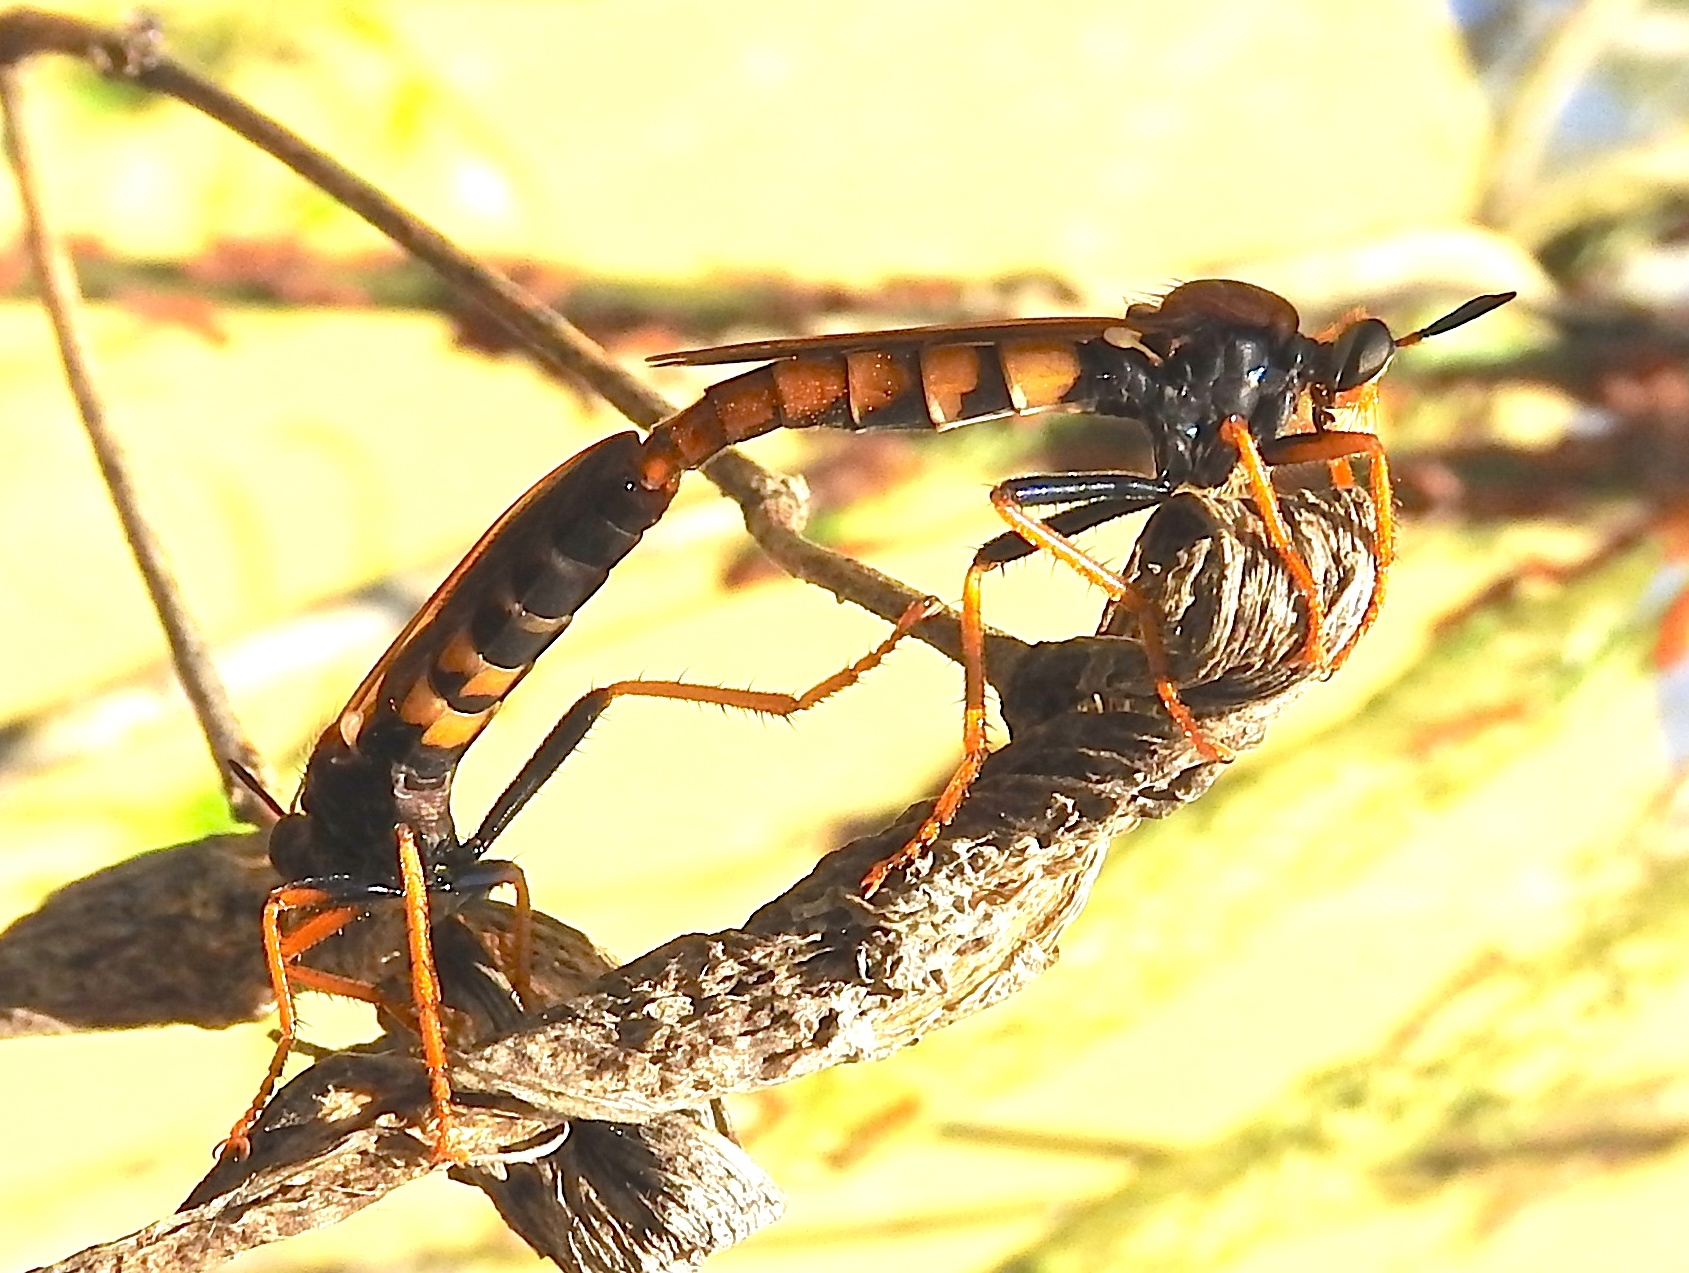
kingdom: Animalia
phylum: Arthropoda
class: Insecta
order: Diptera
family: Asilidae
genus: Stenopogon
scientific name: Stenopogon tequilae
